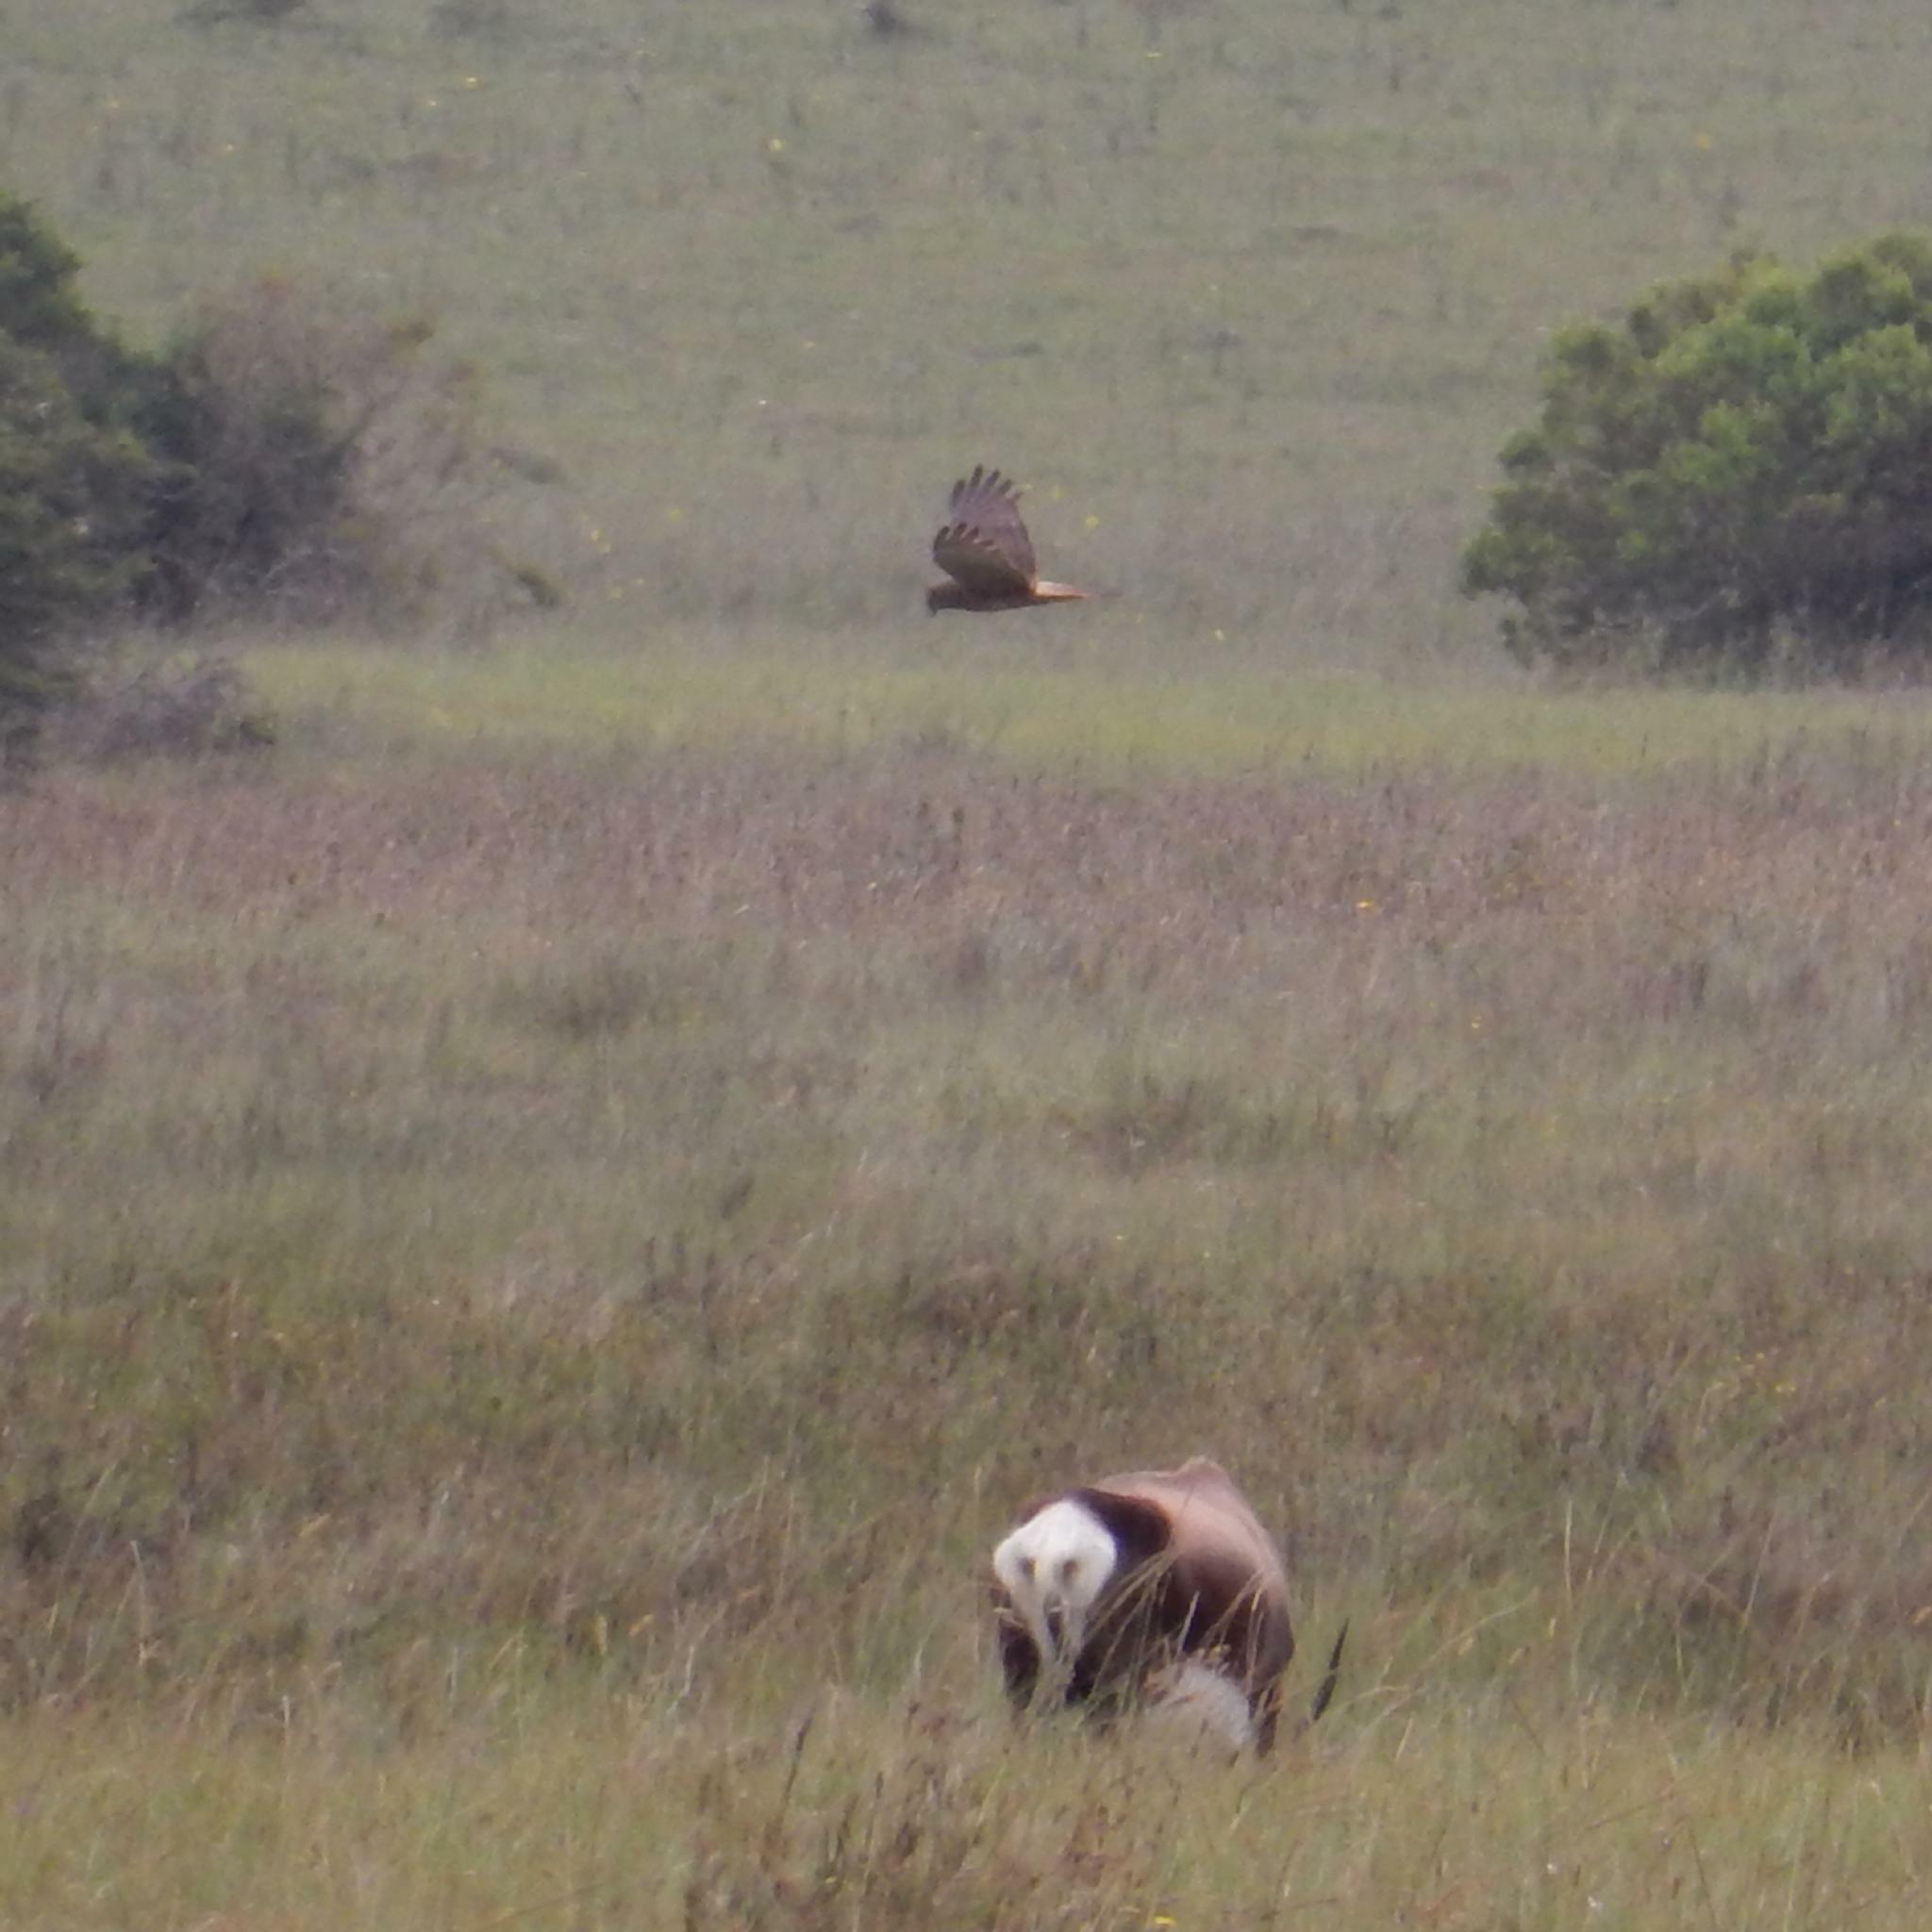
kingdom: Animalia
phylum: Chordata
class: Aves
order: Accipitriformes
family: Accipitridae
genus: Circus
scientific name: Circus ranivorus
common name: African marsh-harrier
